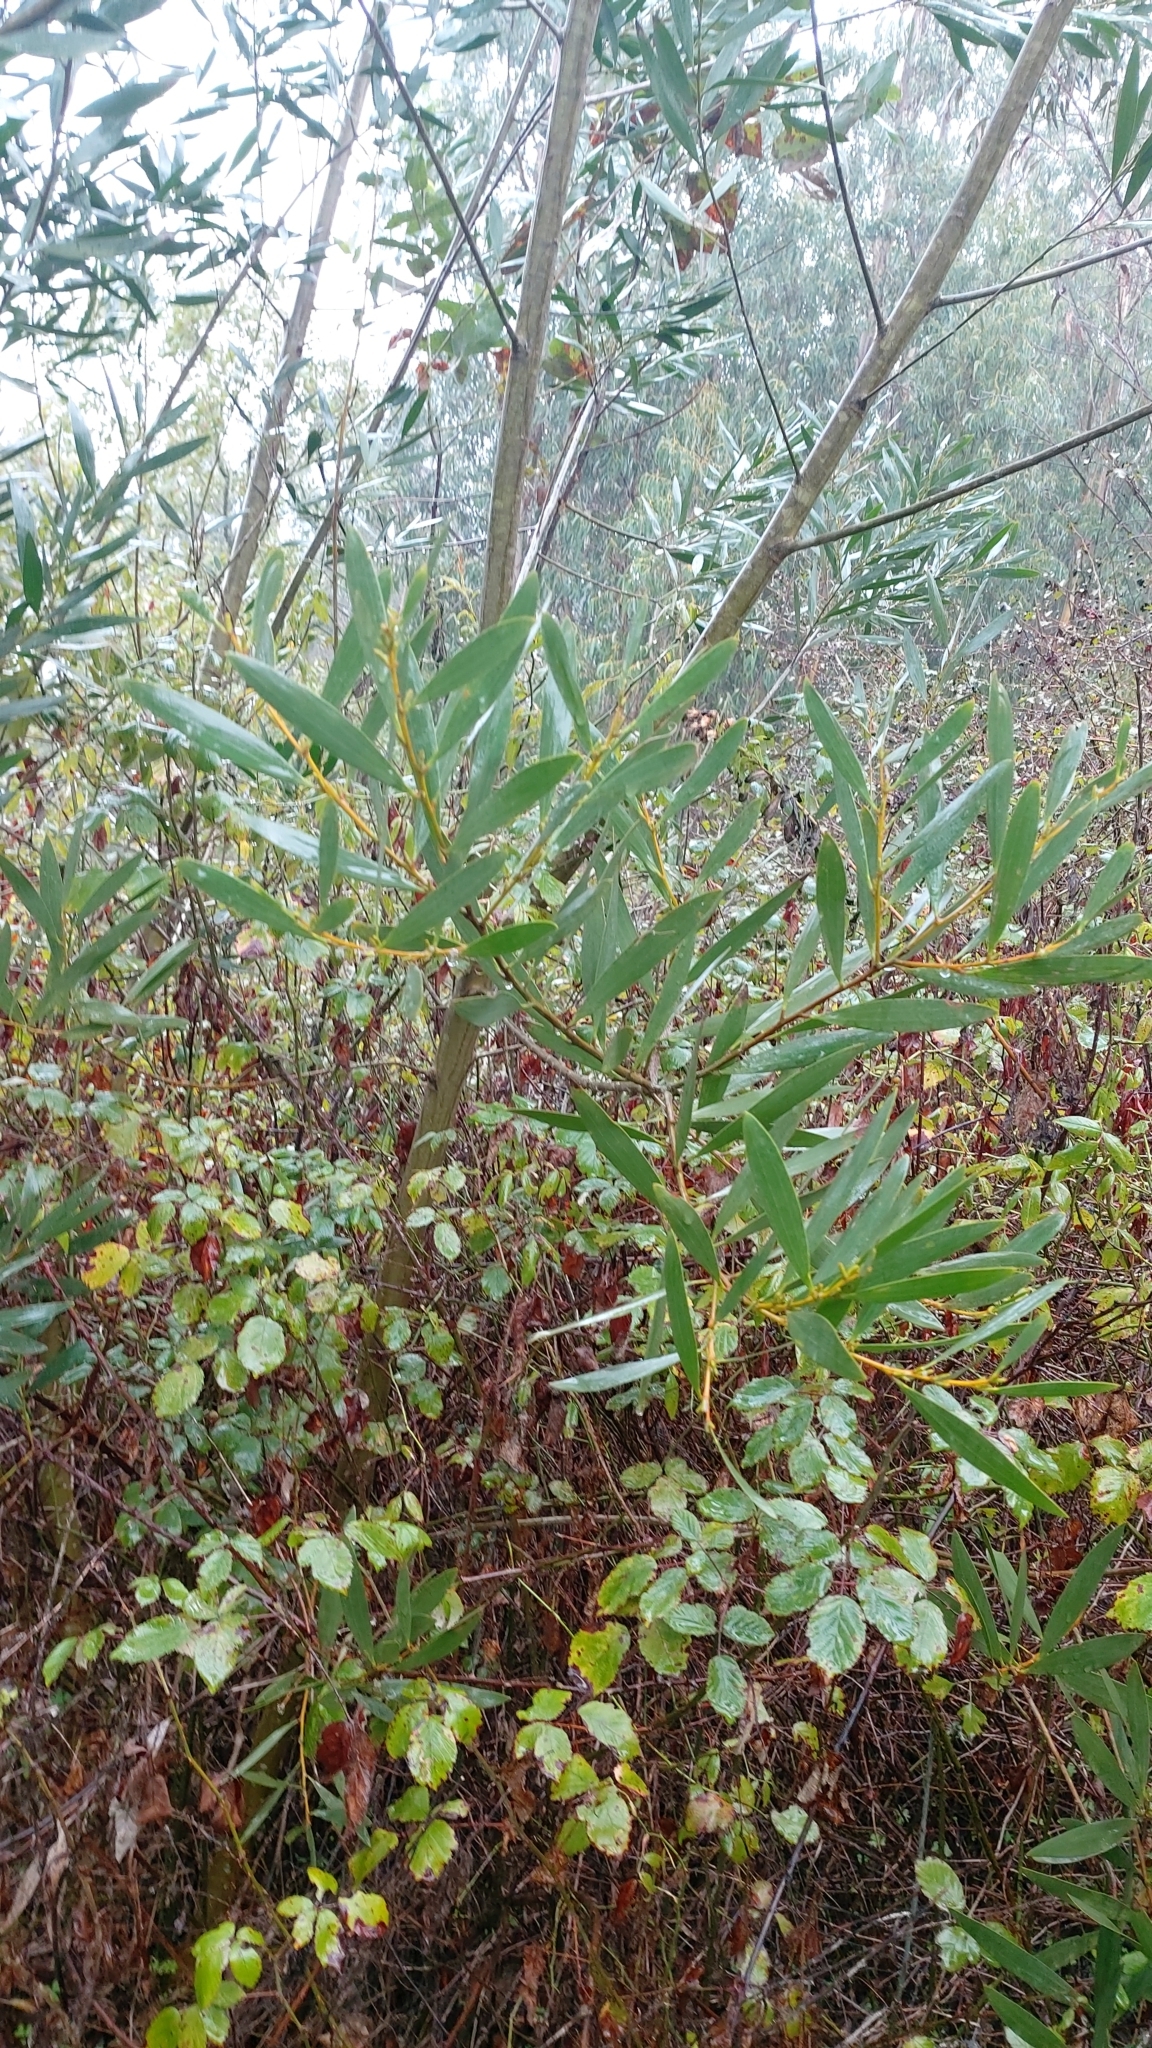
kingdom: Plantae
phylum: Tracheophyta
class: Magnoliopsida
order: Fabales
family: Fabaceae
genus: Acacia
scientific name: Acacia longifolia
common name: Sydney golden wattle
